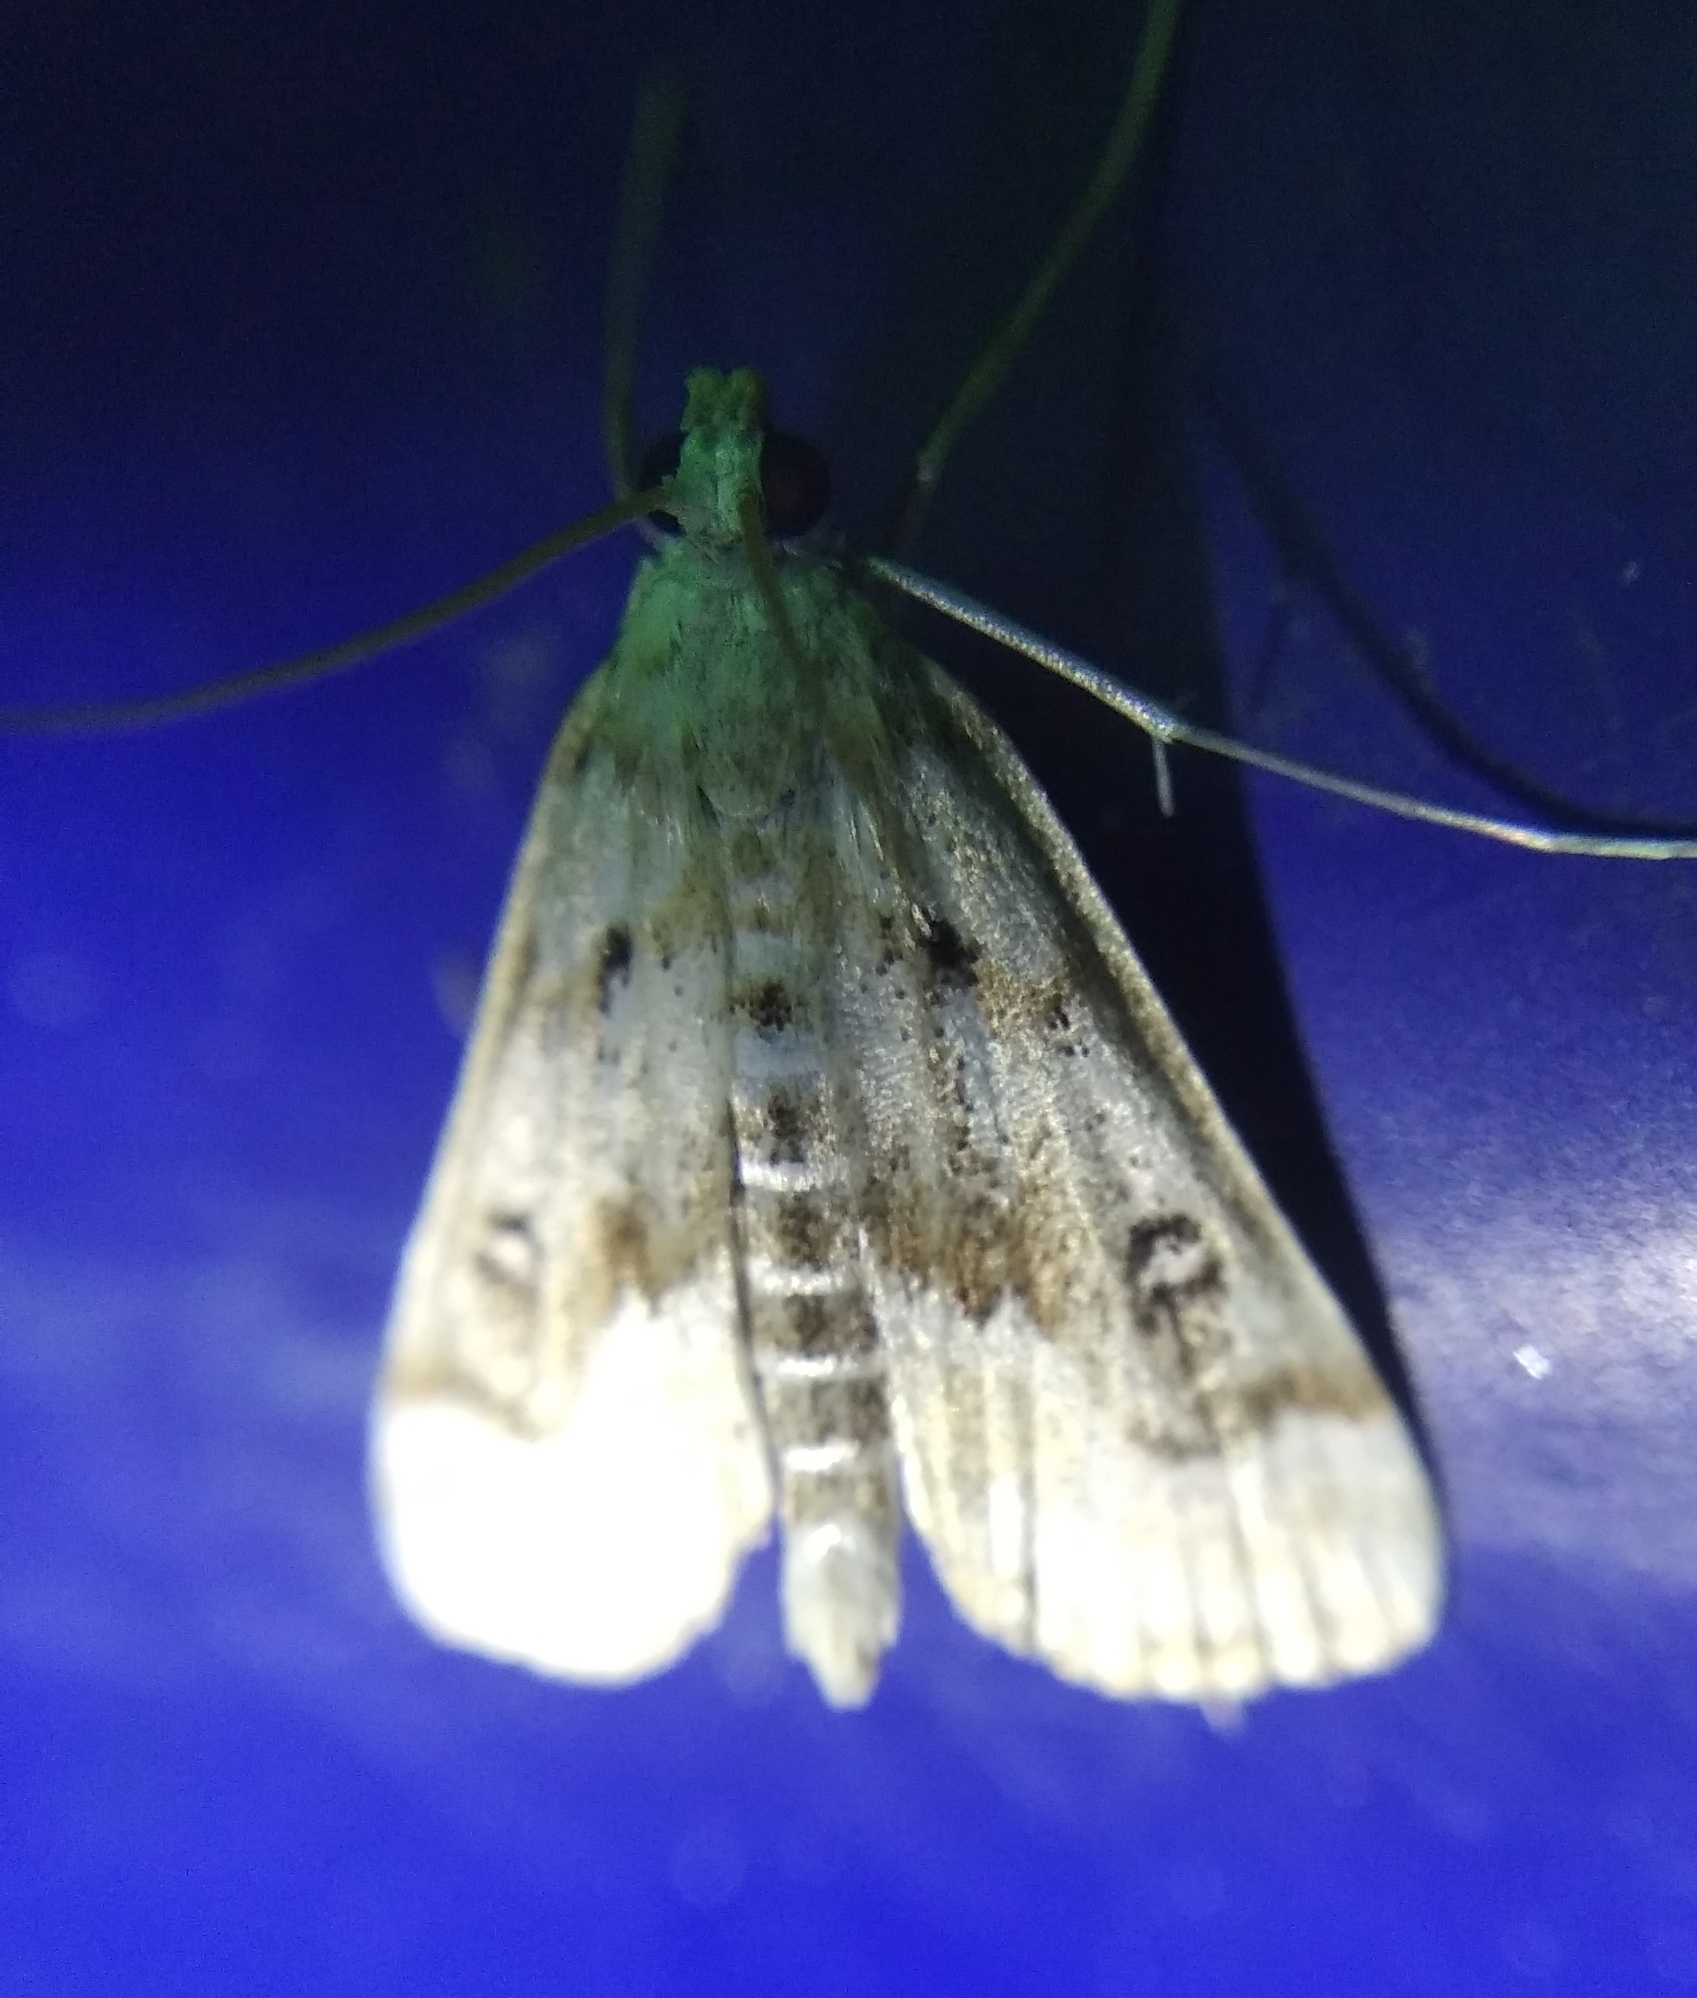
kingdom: Animalia
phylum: Arthropoda
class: Insecta
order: Lepidoptera
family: Crambidae
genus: Parapoynx
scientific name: Parapoynx stratiotata
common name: Ringed china-mark
